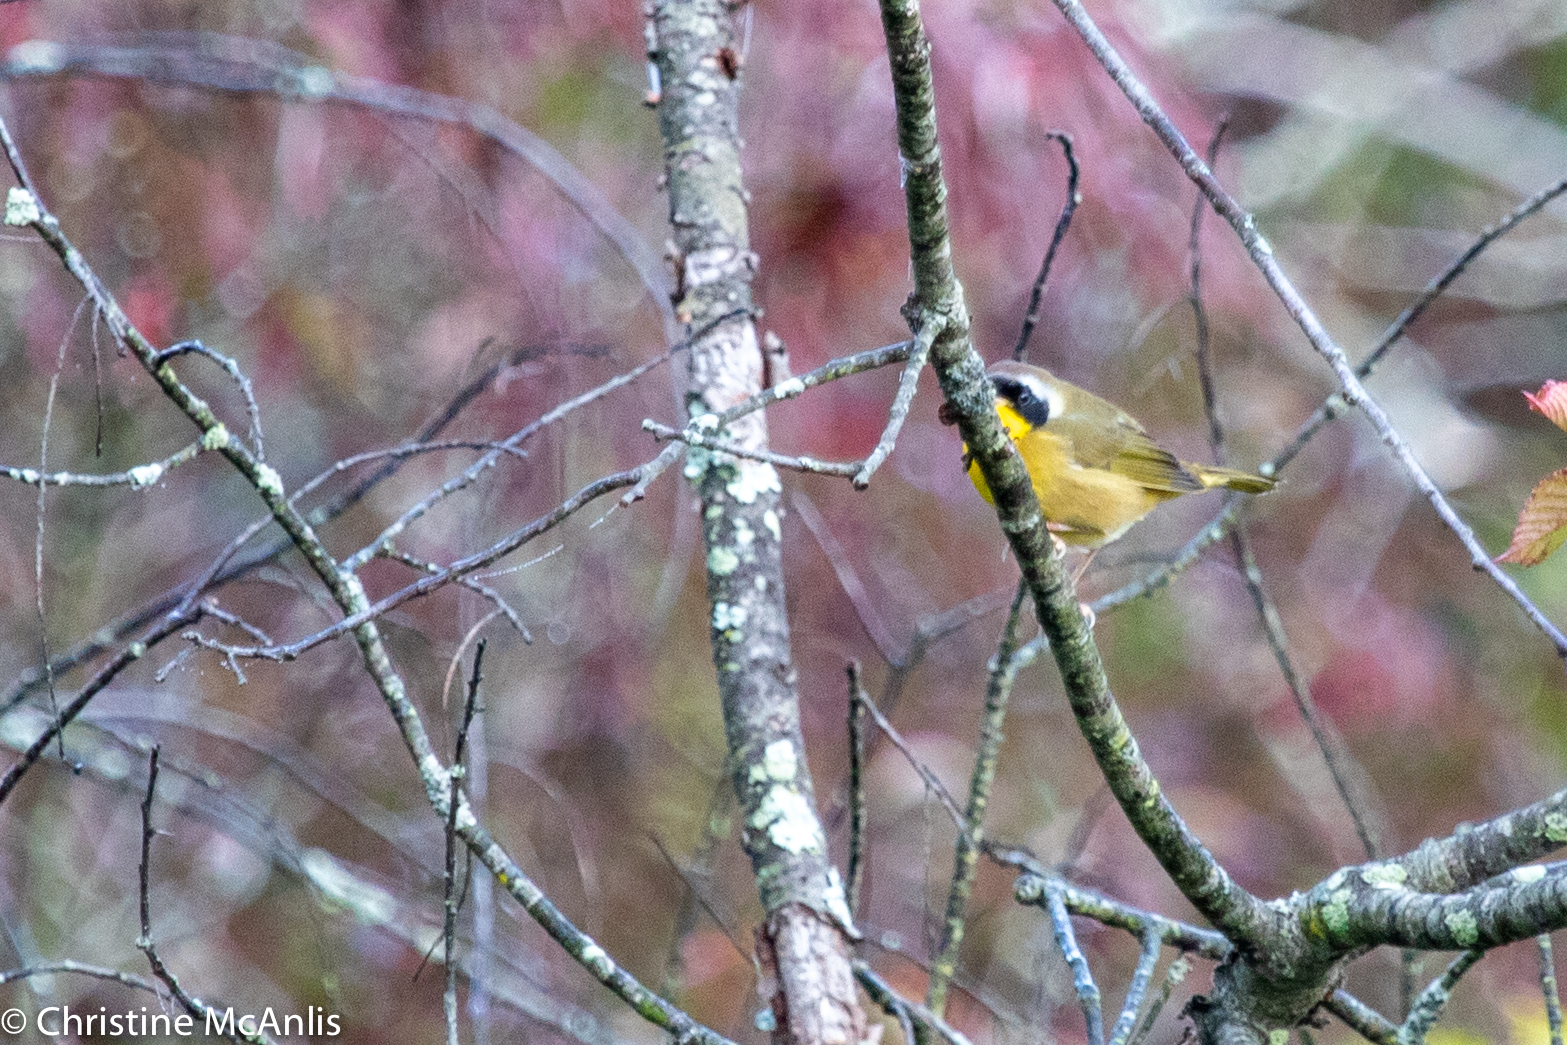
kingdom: Animalia
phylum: Chordata
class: Aves
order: Passeriformes
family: Parulidae
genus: Geothlypis
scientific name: Geothlypis trichas
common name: Common yellowthroat
